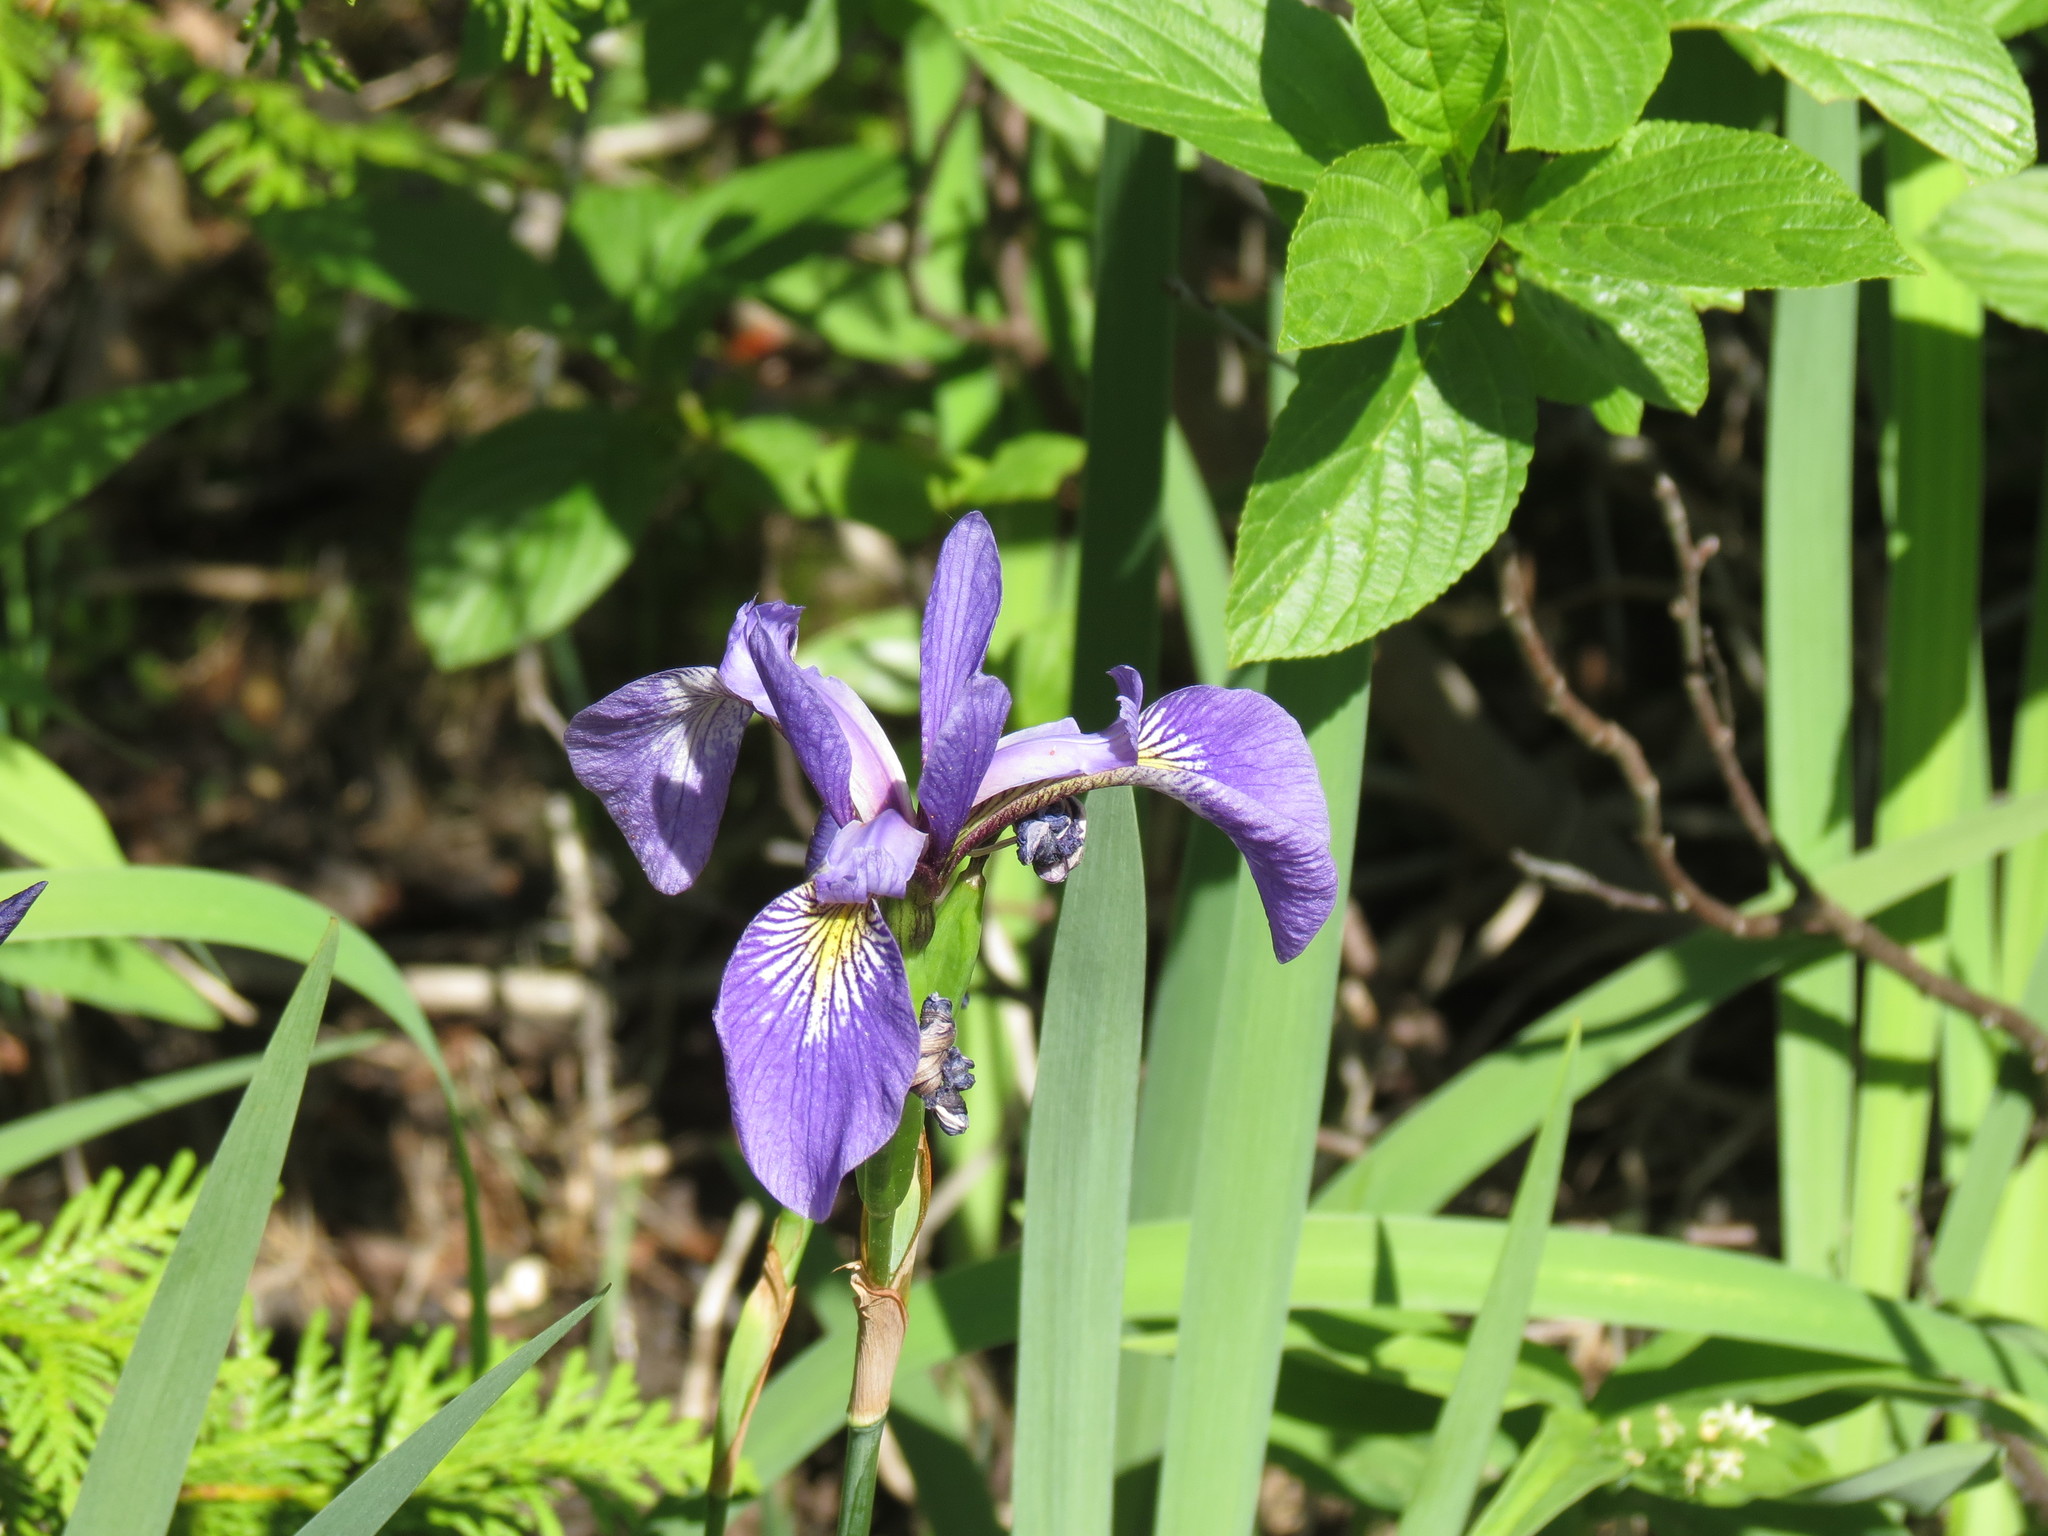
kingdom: Plantae
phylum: Tracheophyta
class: Liliopsida
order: Asparagales
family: Iridaceae
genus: Iris
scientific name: Iris versicolor
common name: Purple iris
